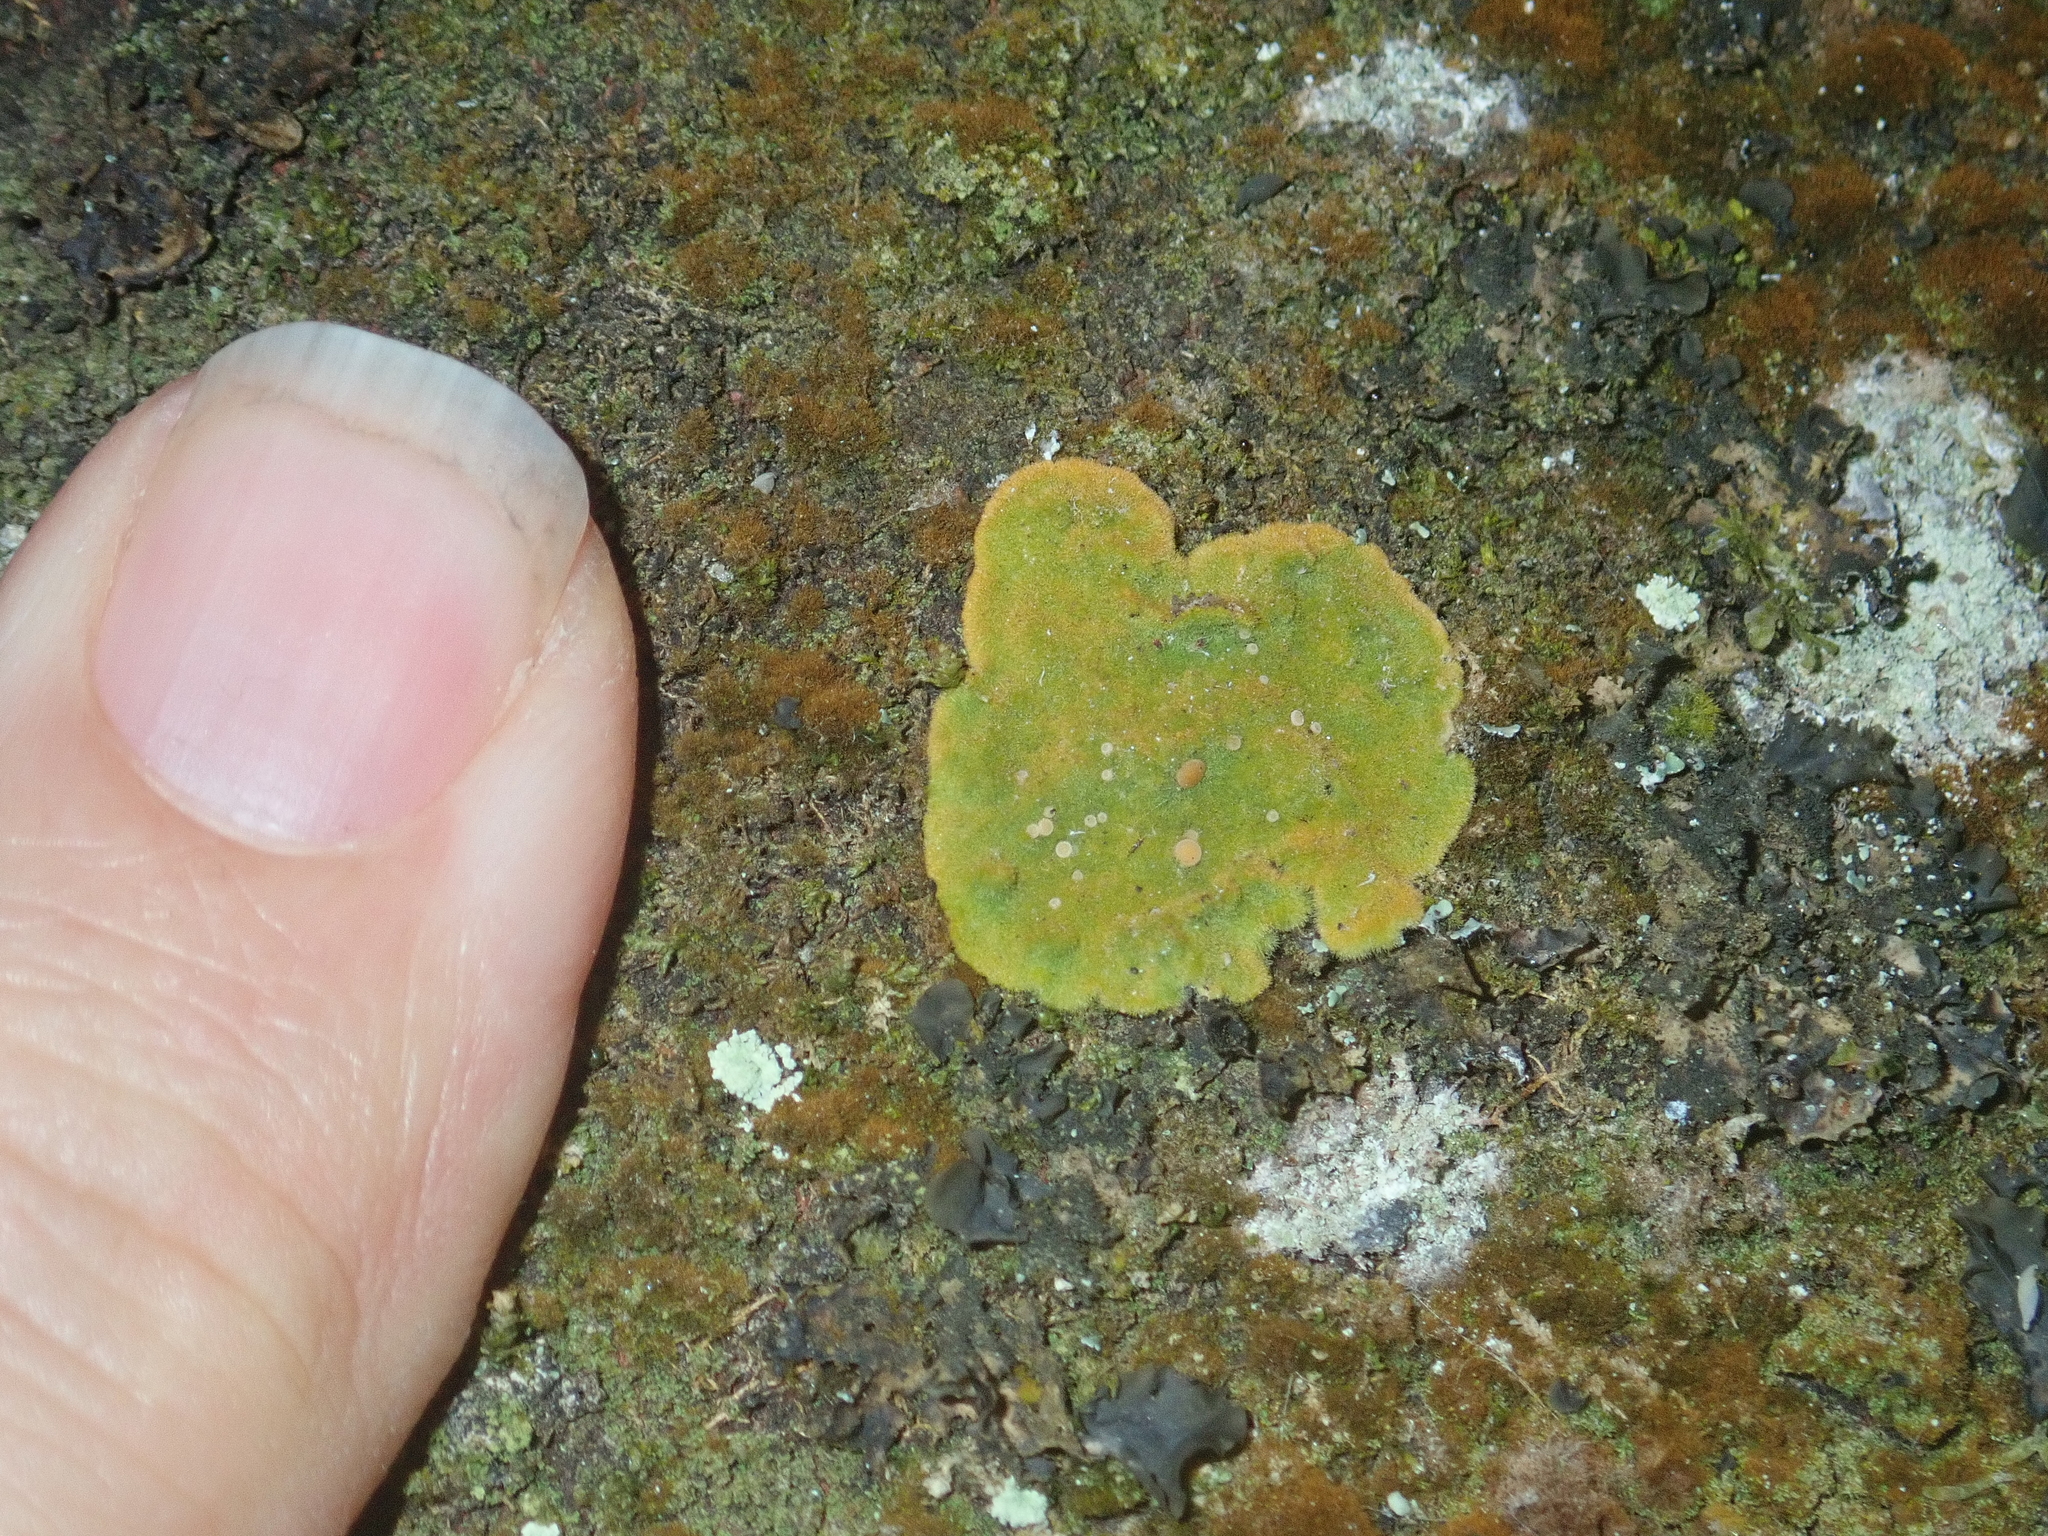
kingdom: Fungi
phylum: Ascomycota
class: Lecanoromycetes
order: Ostropales
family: Coenogoniaceae
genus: Coenogonium
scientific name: Coenogonium implexum
